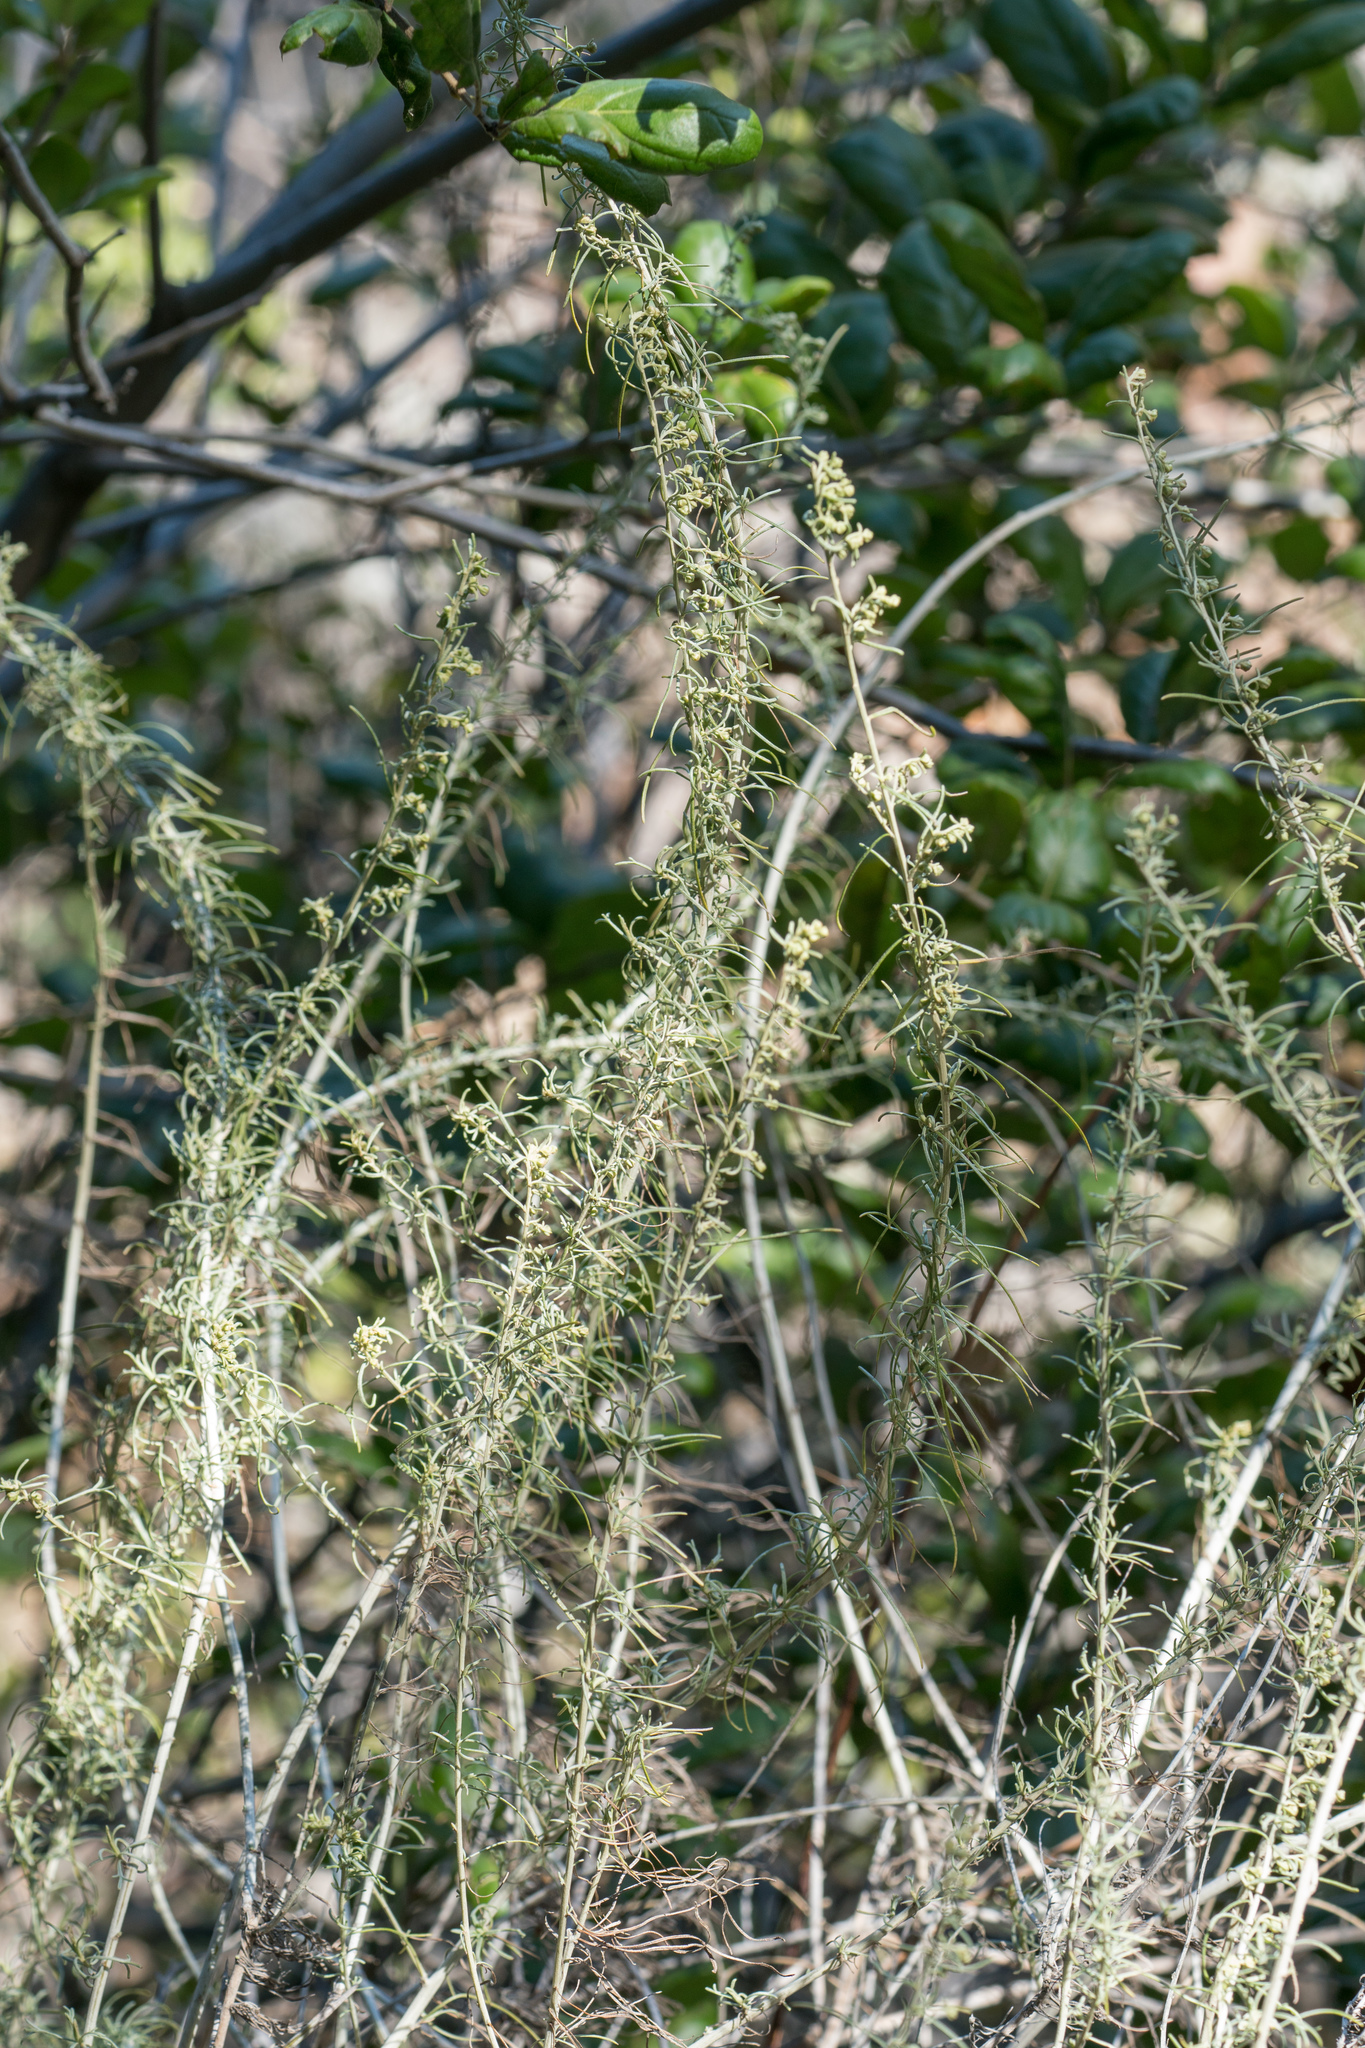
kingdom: Plantae
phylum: Tracheophyta
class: Magnoliopsida
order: Asterales
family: Asteraceae
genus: Artemisia
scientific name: Artemisia californica
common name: California sagebrush
